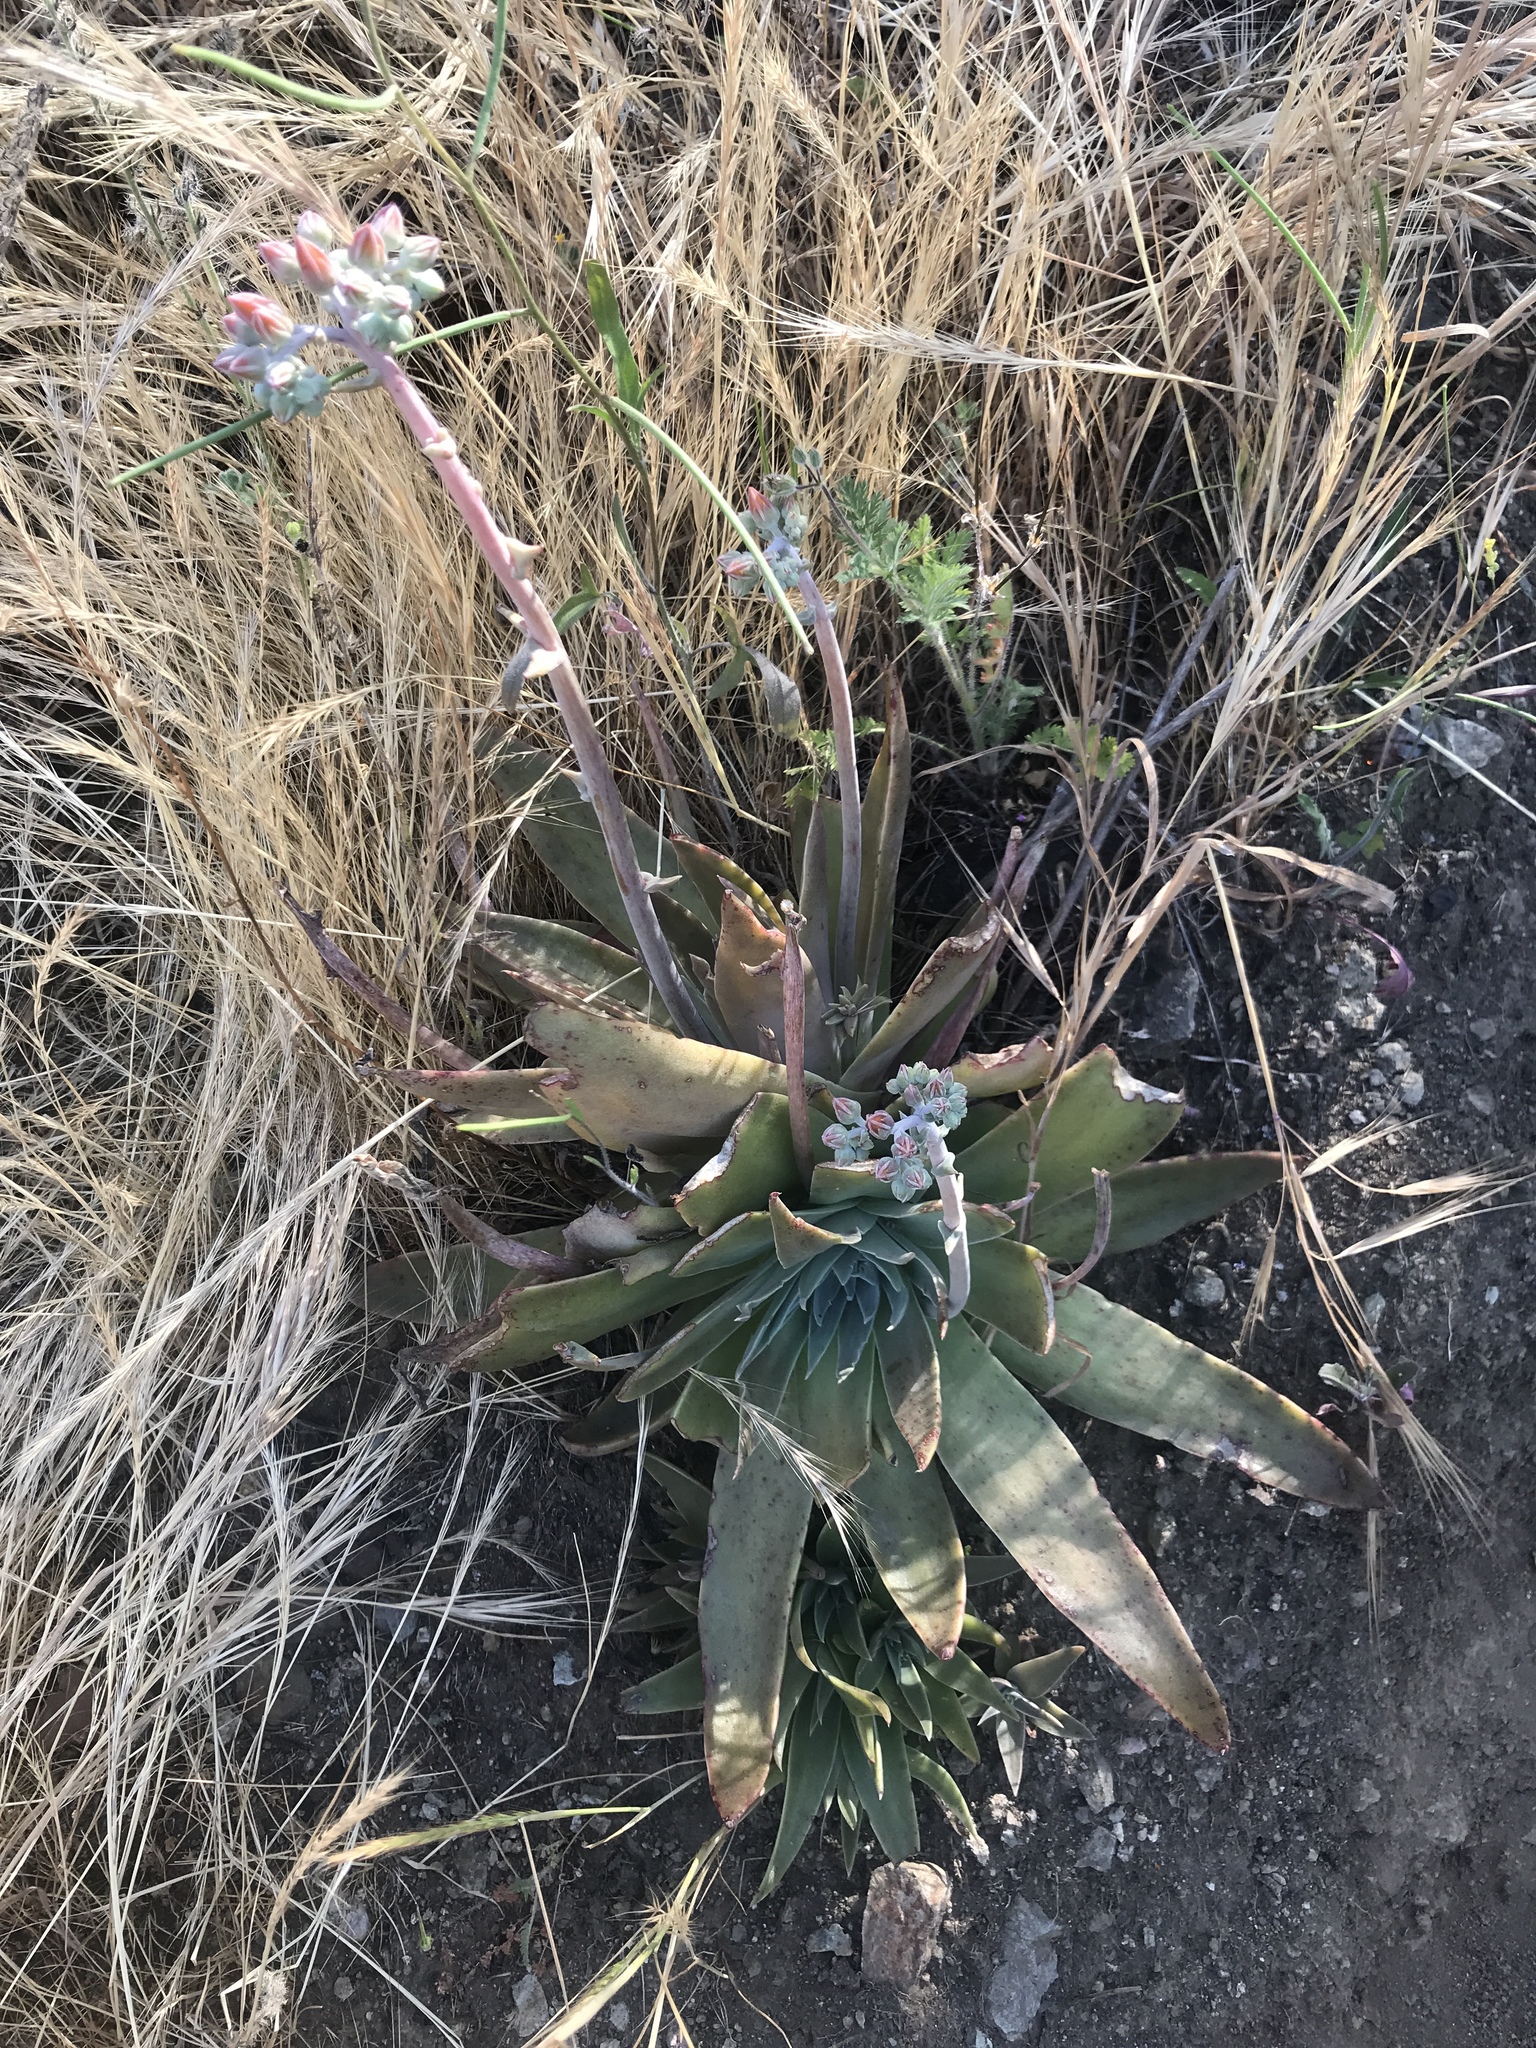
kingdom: Plantae
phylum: Tracheophyta
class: Magnoliopsida
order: Saxifragales
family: Crassulaceae
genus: Dudleya
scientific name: Dudleya lanceolata
